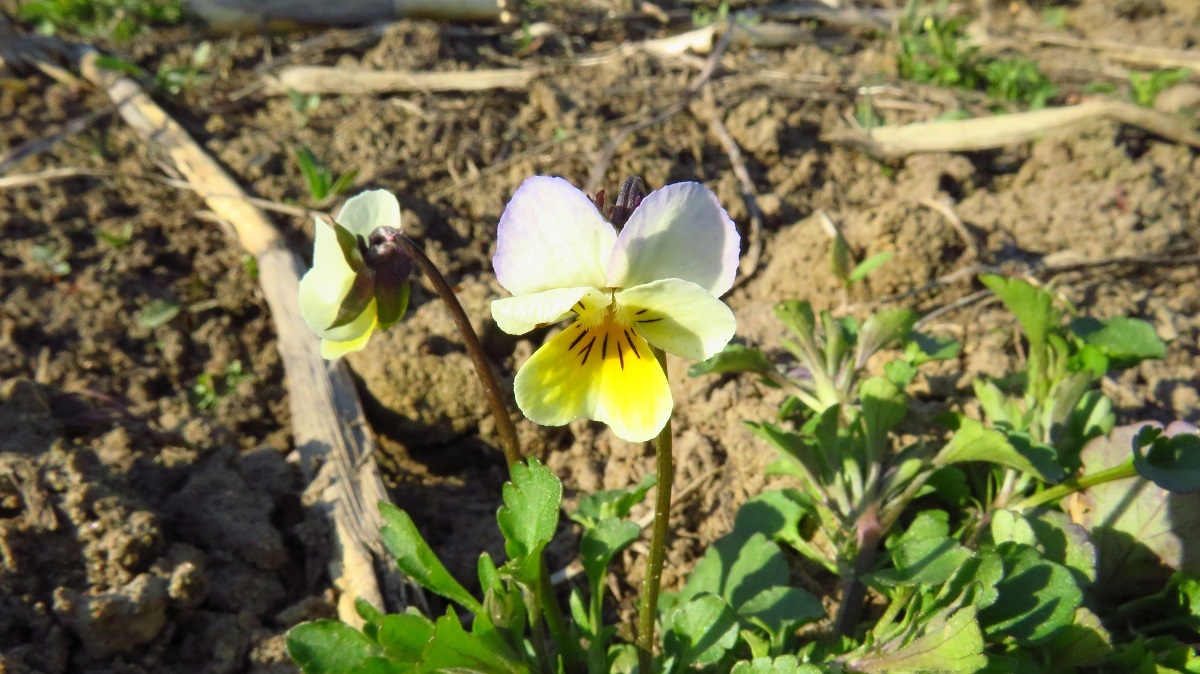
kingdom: Plantae
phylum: Tracheophyta
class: Magnoliopsida
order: Malpighiales
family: Violaceae
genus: Viola
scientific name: Viola tricolor
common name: Pansy
